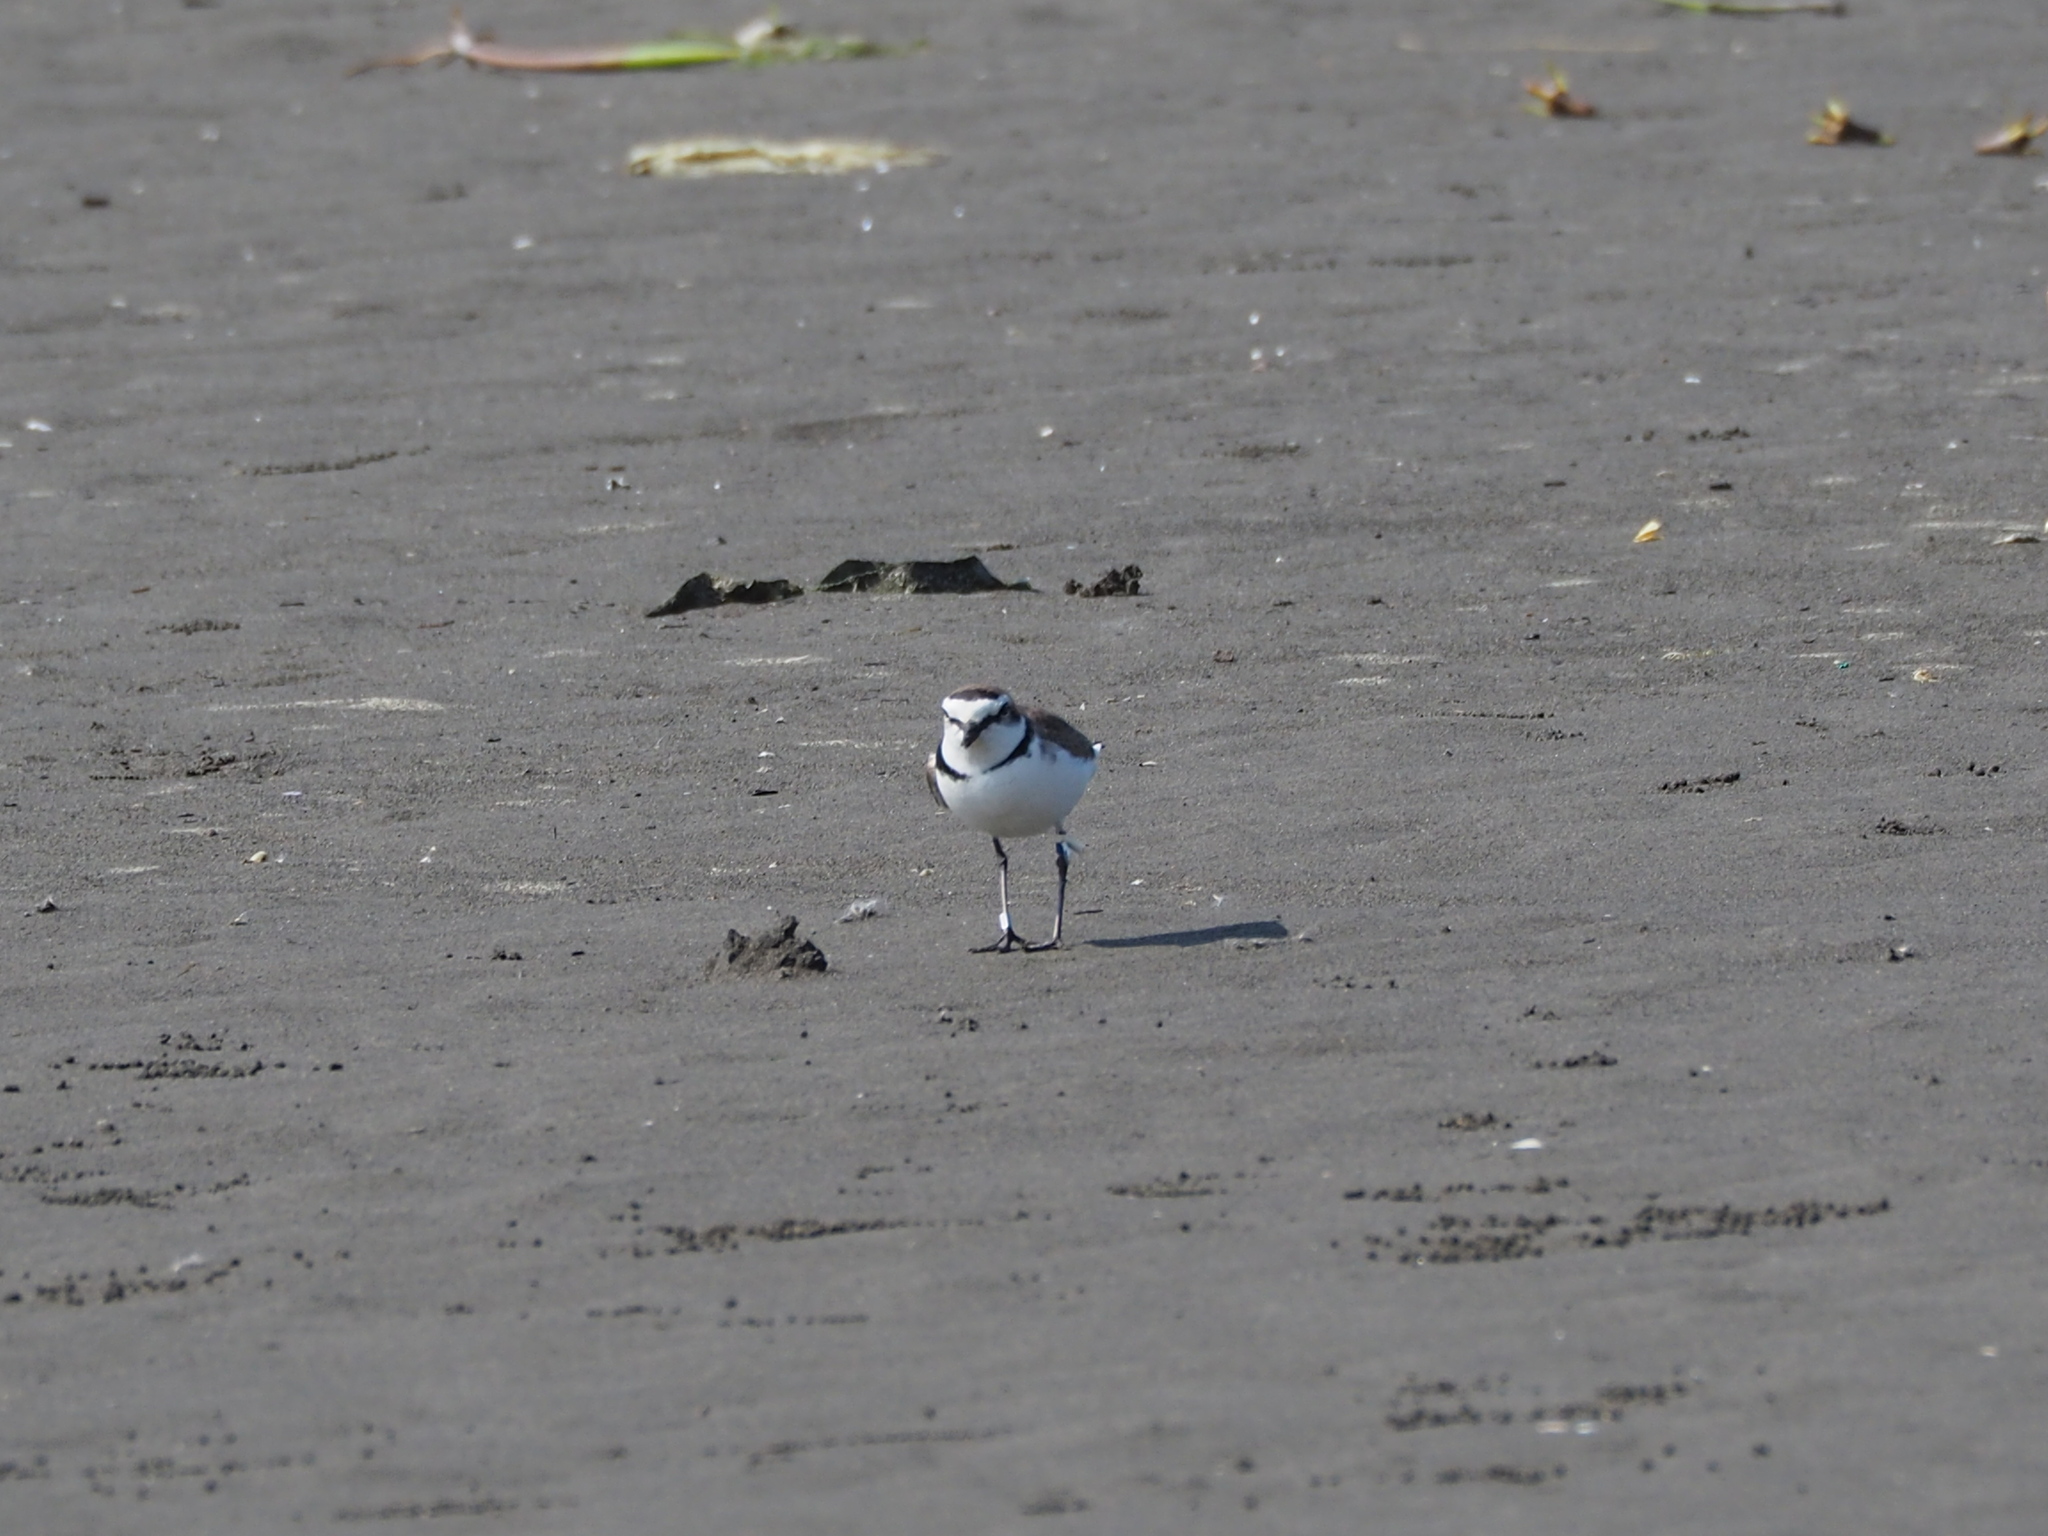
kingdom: Animalia
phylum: Chordata
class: Aves
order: Charadriiformes
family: Charadriidae
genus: Charadrius
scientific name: Charadrius alexandrinus
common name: Kentish plover
